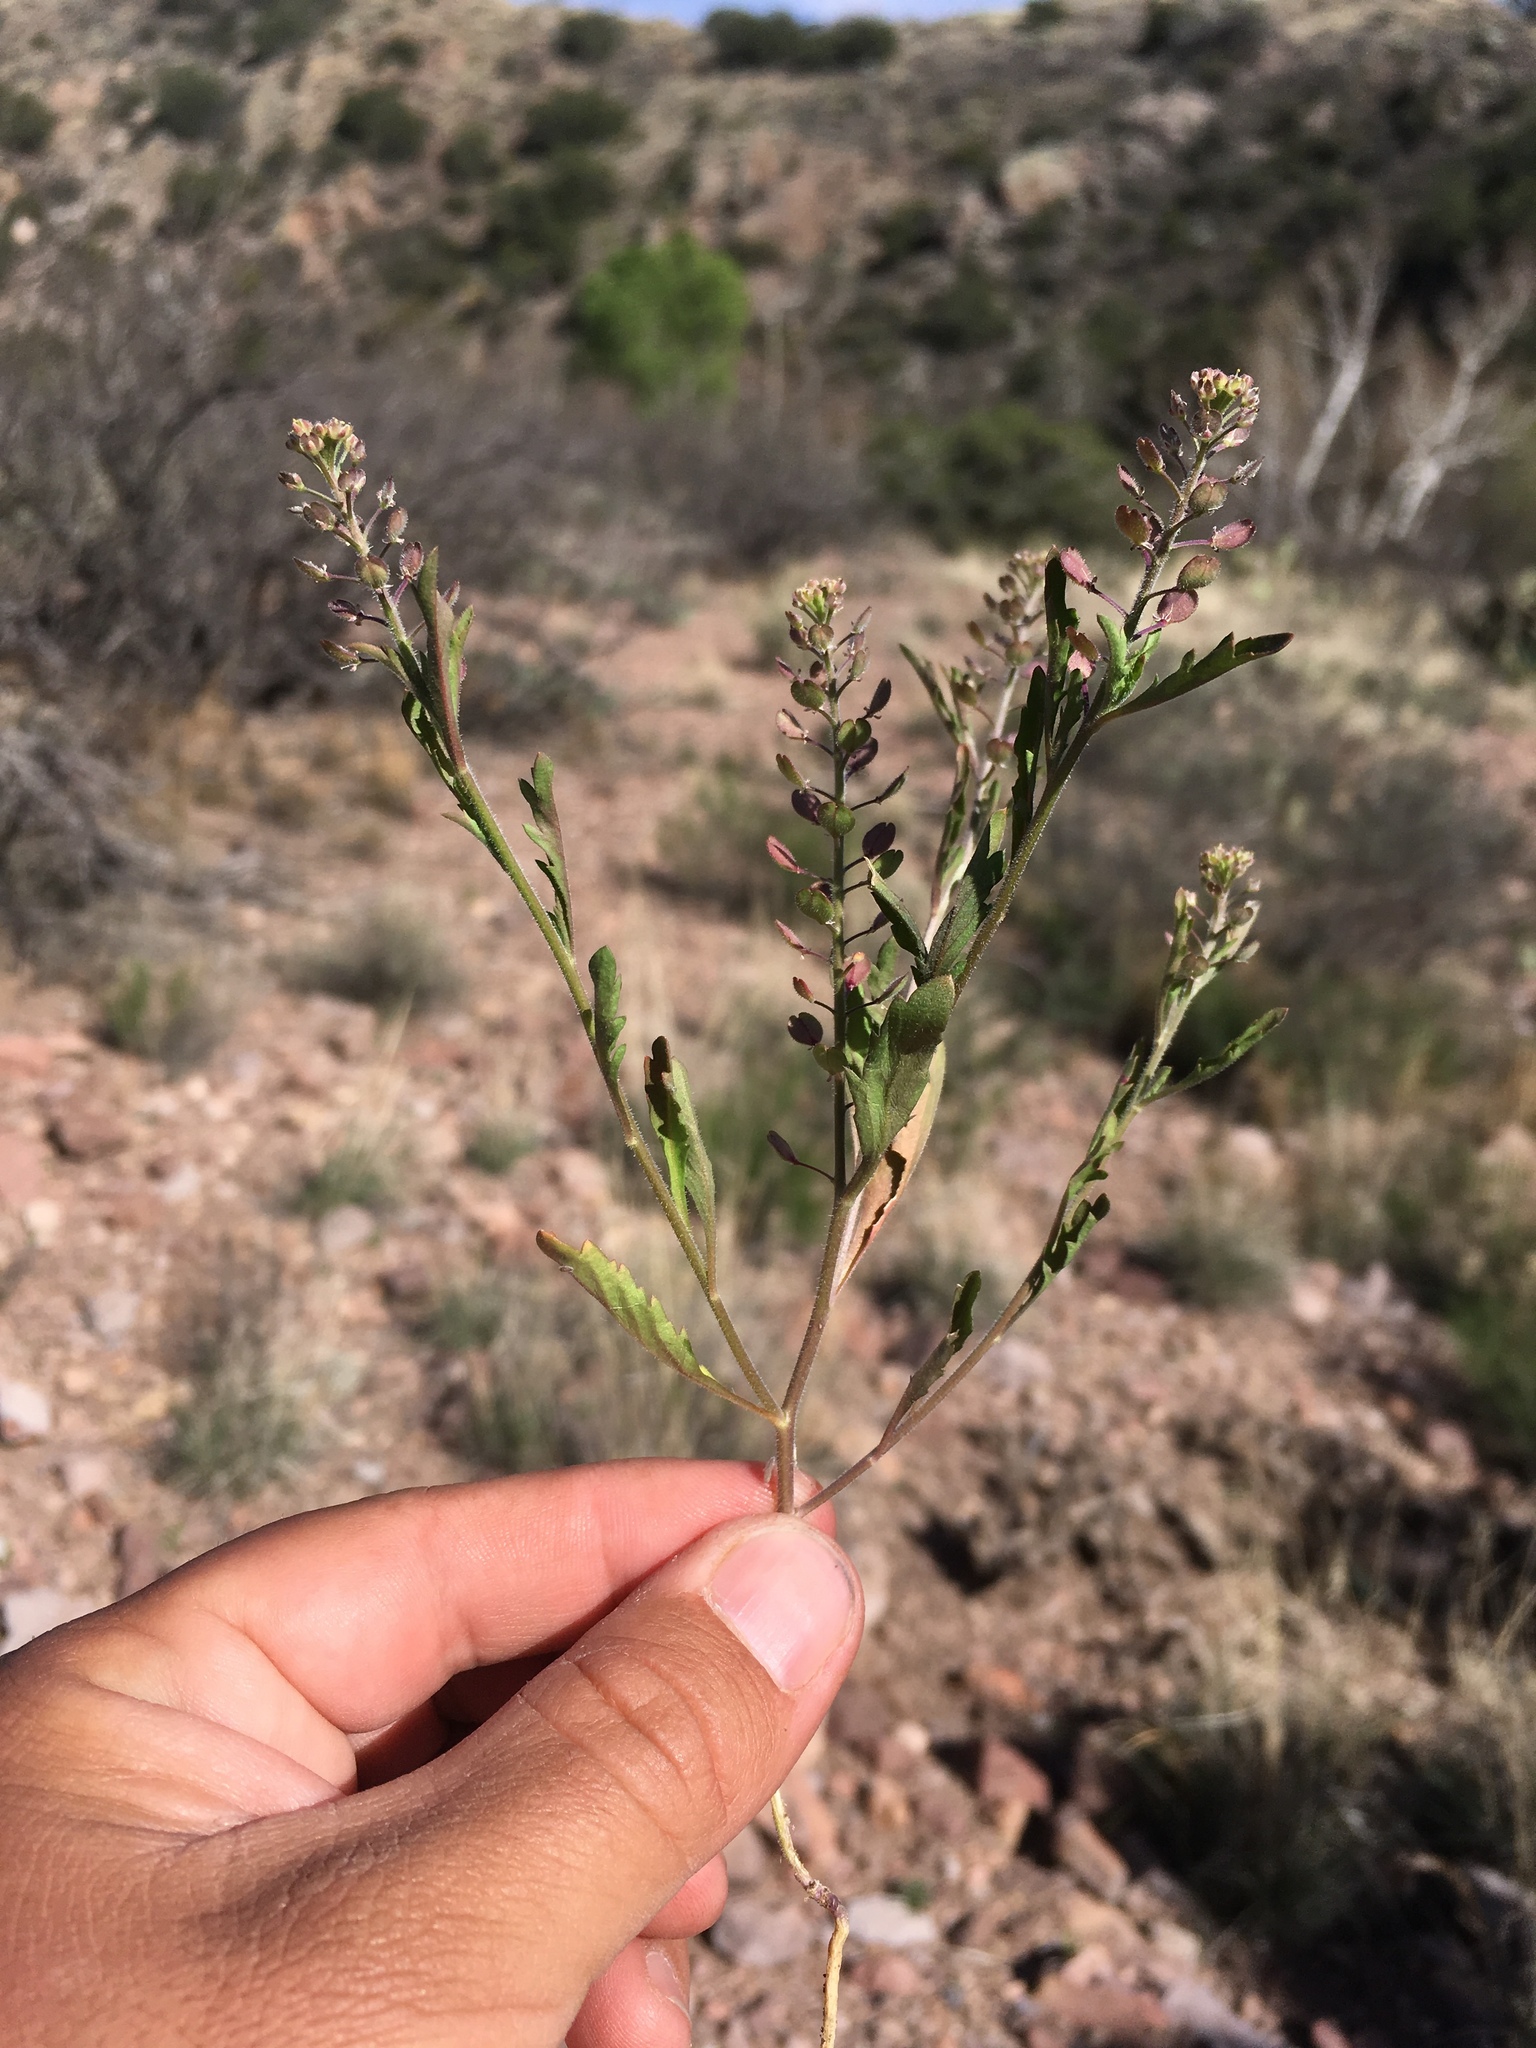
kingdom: Plantae
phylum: Tracheophyta
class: Magnoliopsida
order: Brassicales
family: Brassicaceae
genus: Lepidium
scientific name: Lepidium lasiocarpum
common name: Hairy-pod pepperwort
